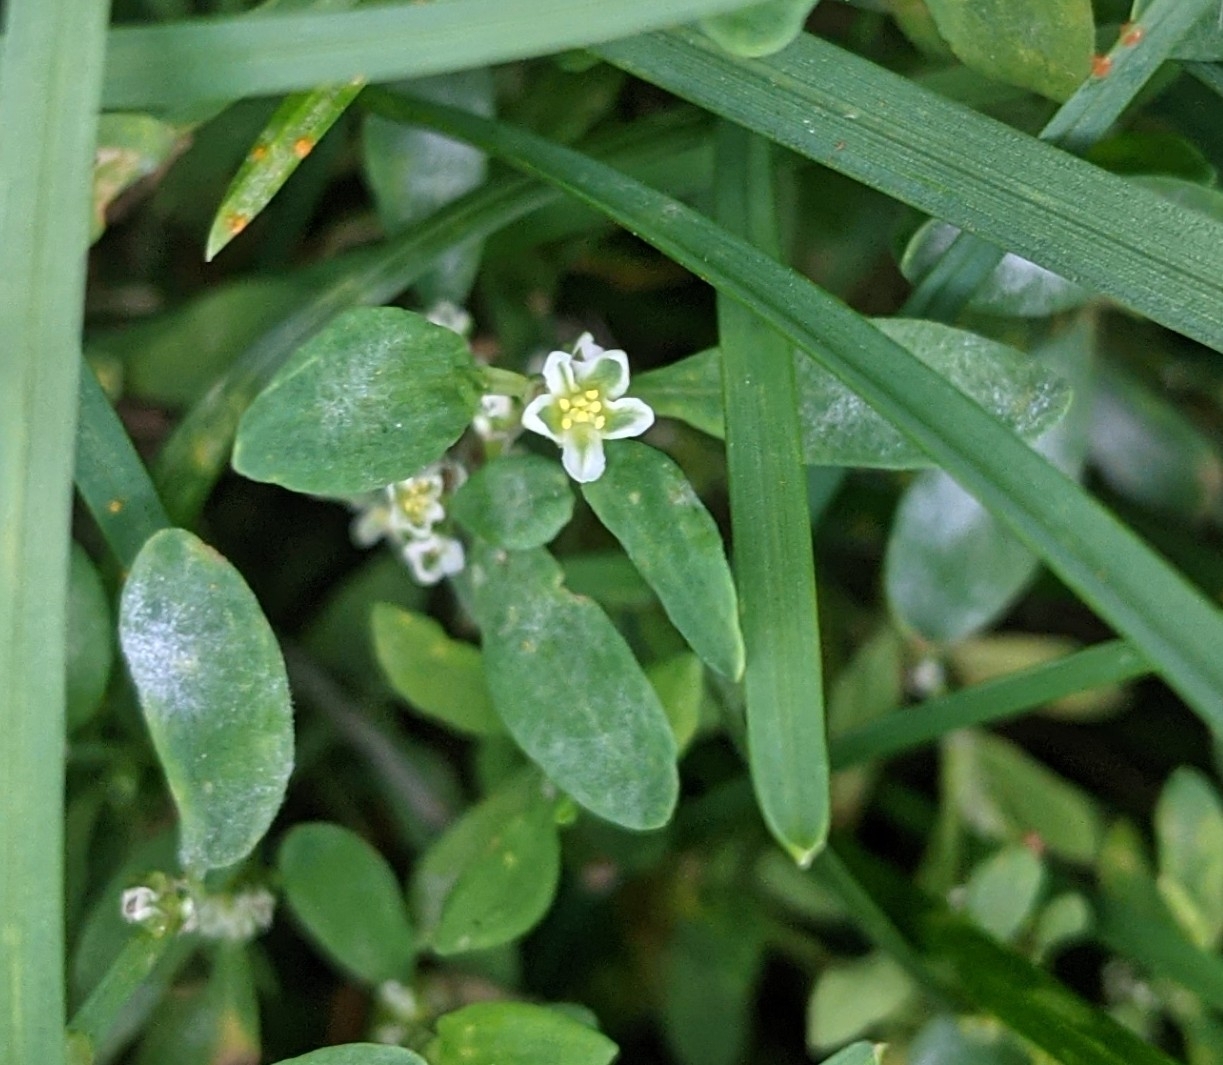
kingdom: Plantae
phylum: Tracheophyta
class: Magnoliopsida
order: Caryophyllales
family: Polygonaceae
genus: Polygonum
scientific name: Polygonum aviculare
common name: Prostrate knotweed
